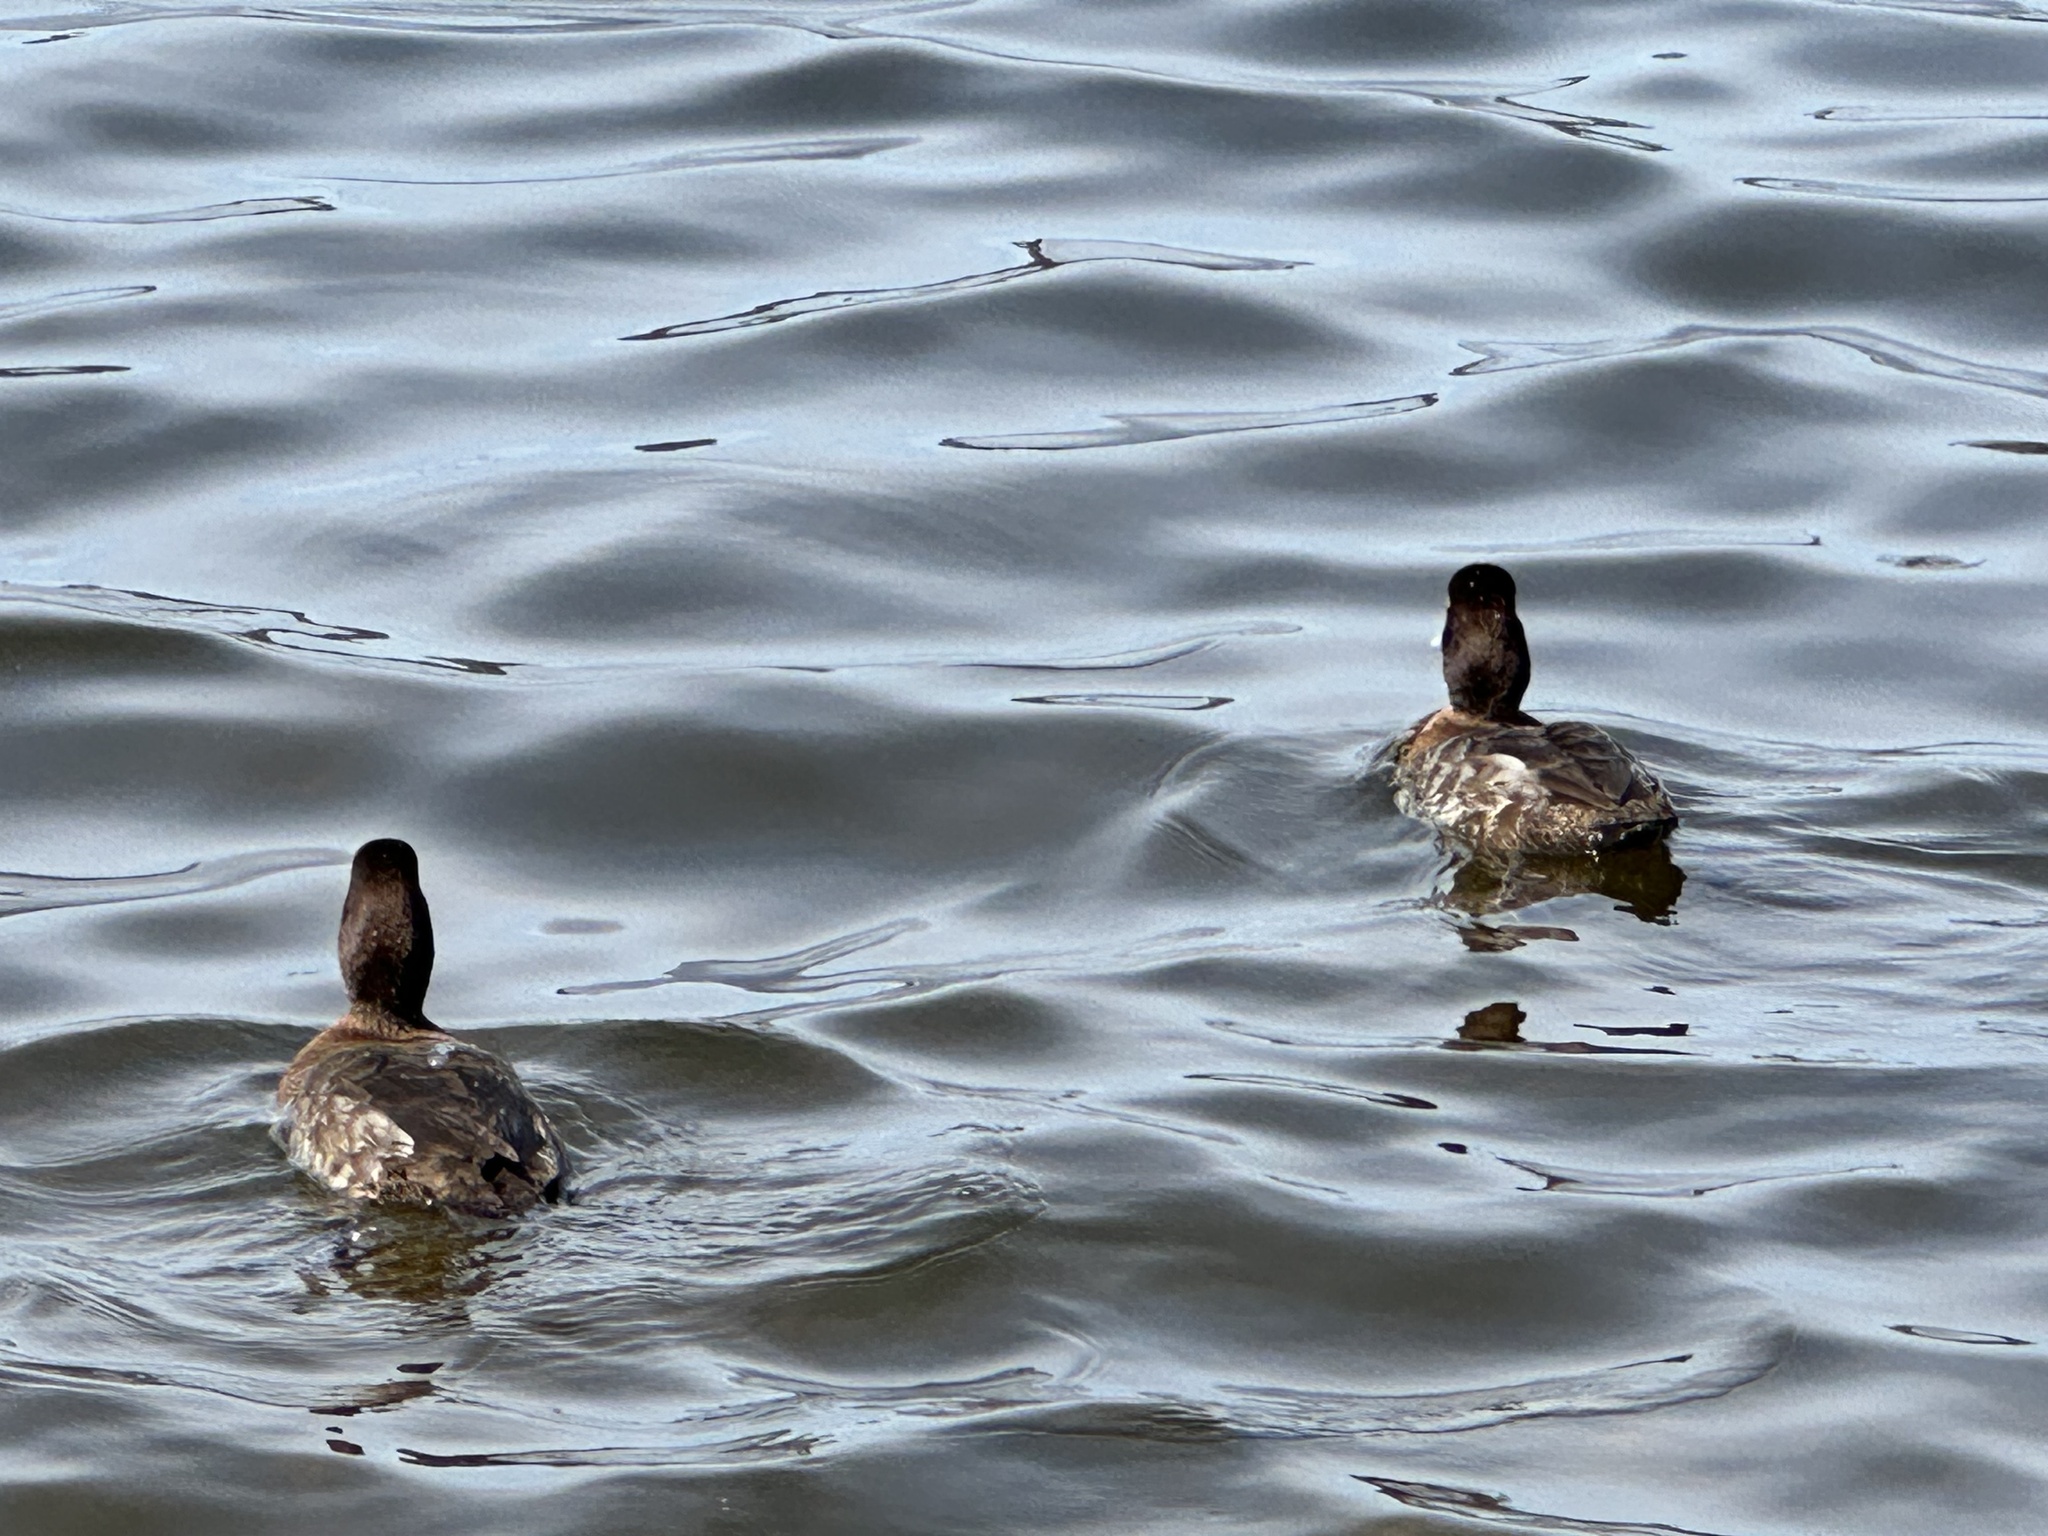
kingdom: Animalia
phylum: Chordata
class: Aves
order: Anseriformes
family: Anatidae
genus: Aythya
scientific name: Aythya affinis
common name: Lesser scaup
